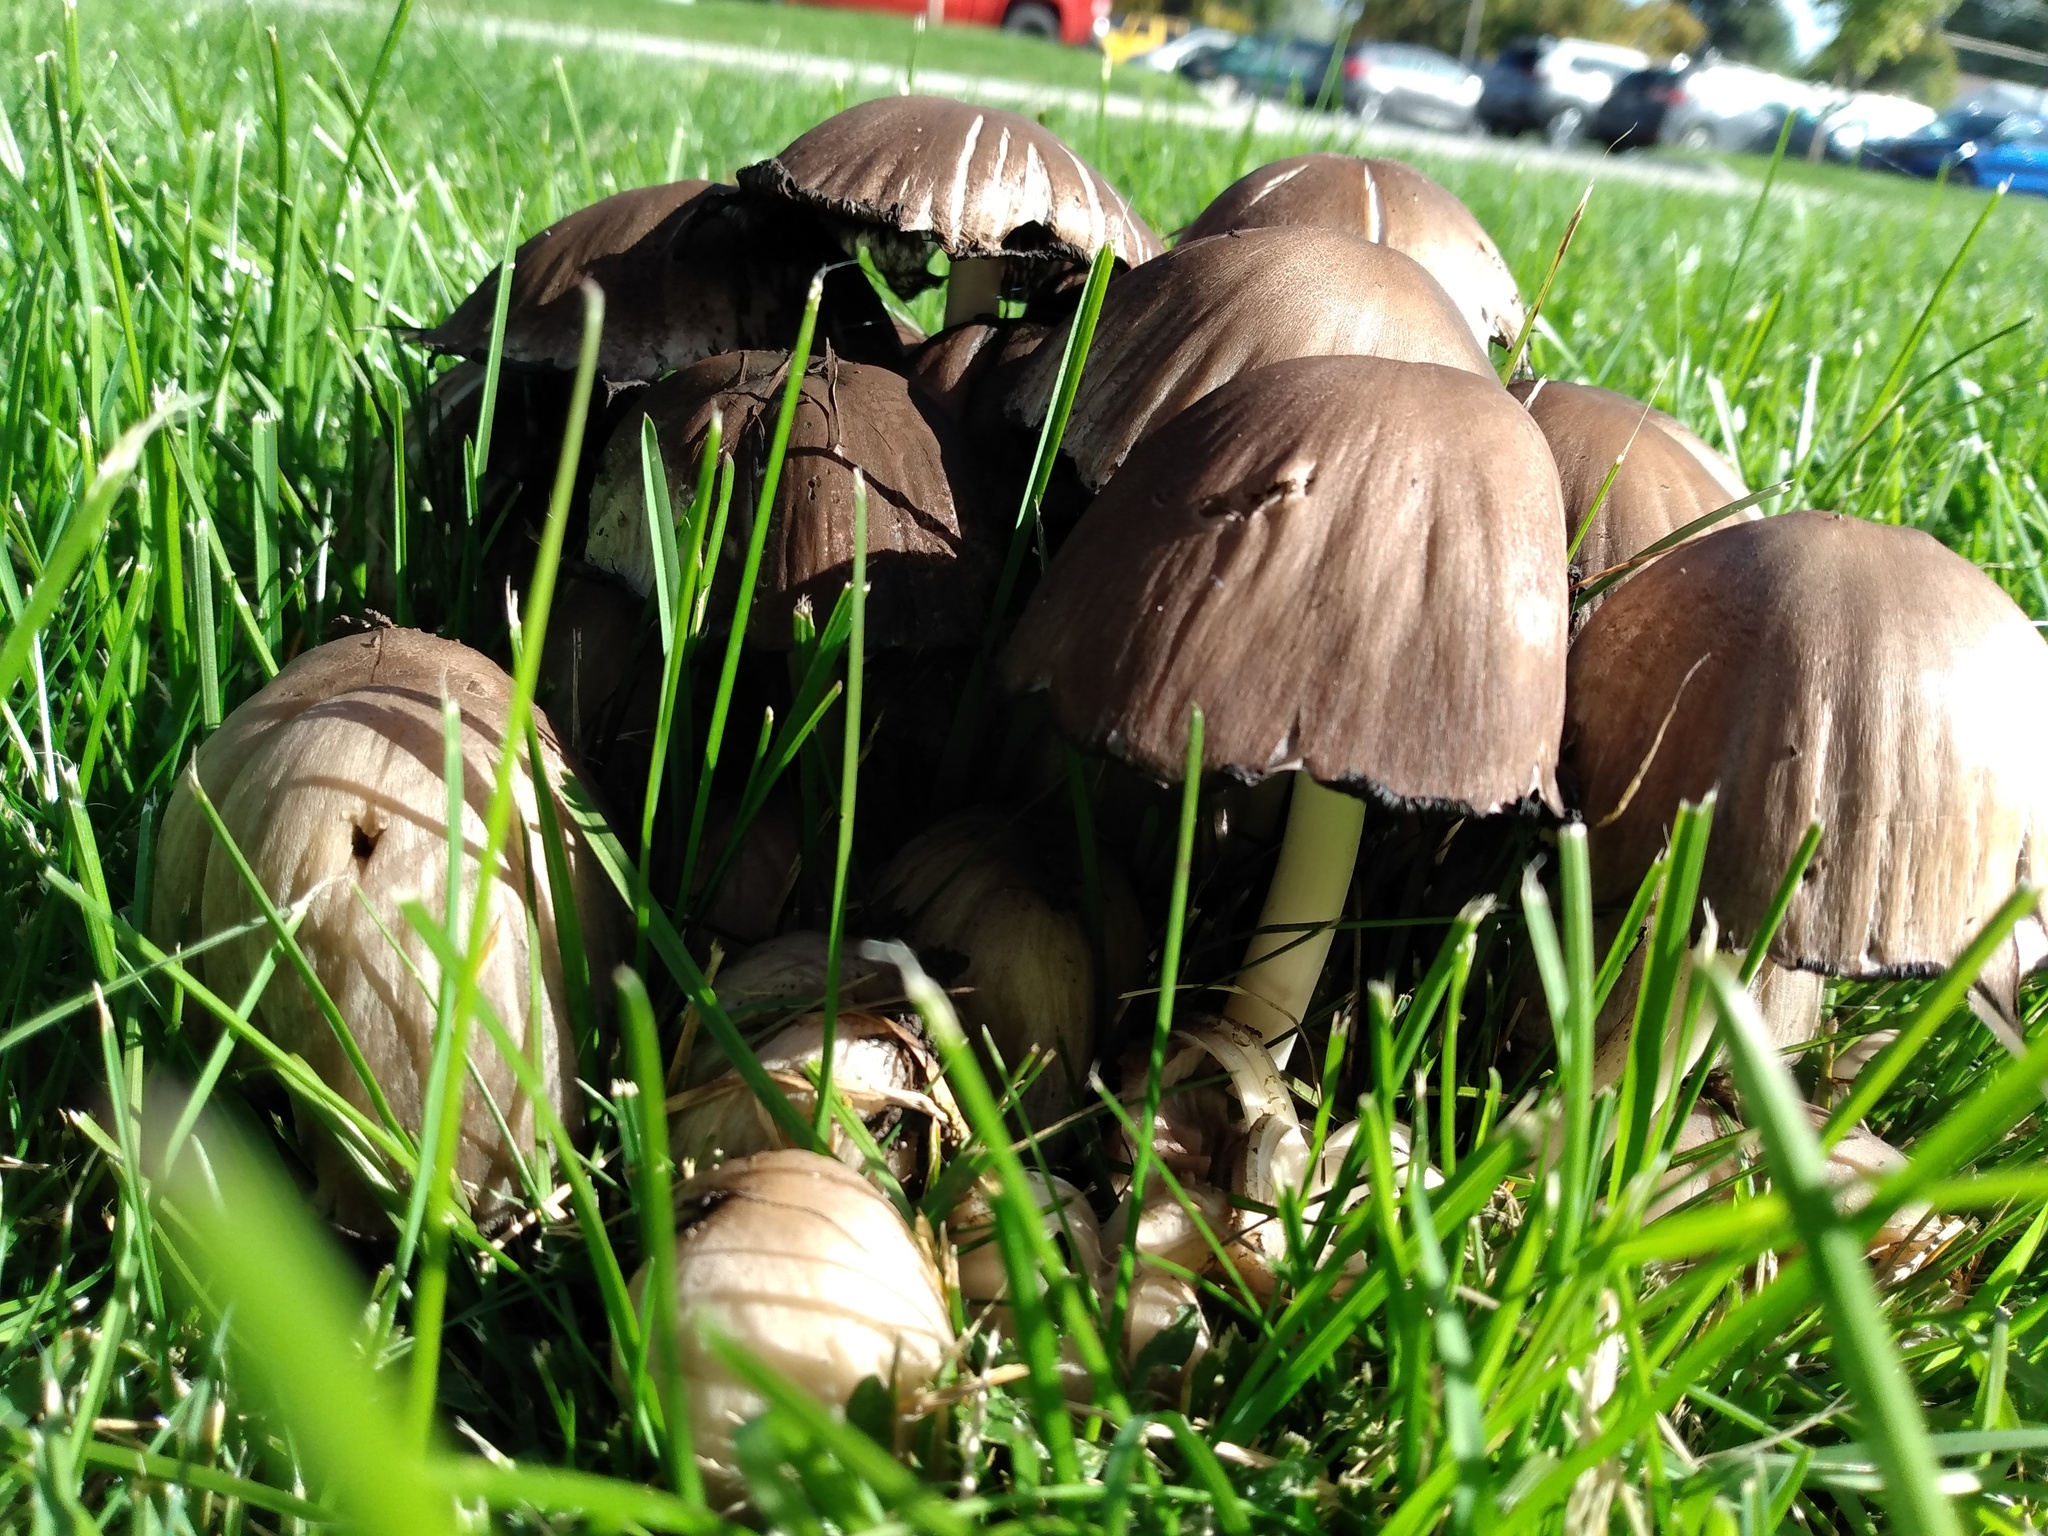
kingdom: Fungi
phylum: Basidiomycota
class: Agaricomycetes
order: Agaricales
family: Psathyrellaceae
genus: Coprinopsis
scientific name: Coprinopsis atramentaria
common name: Common ink-cap
